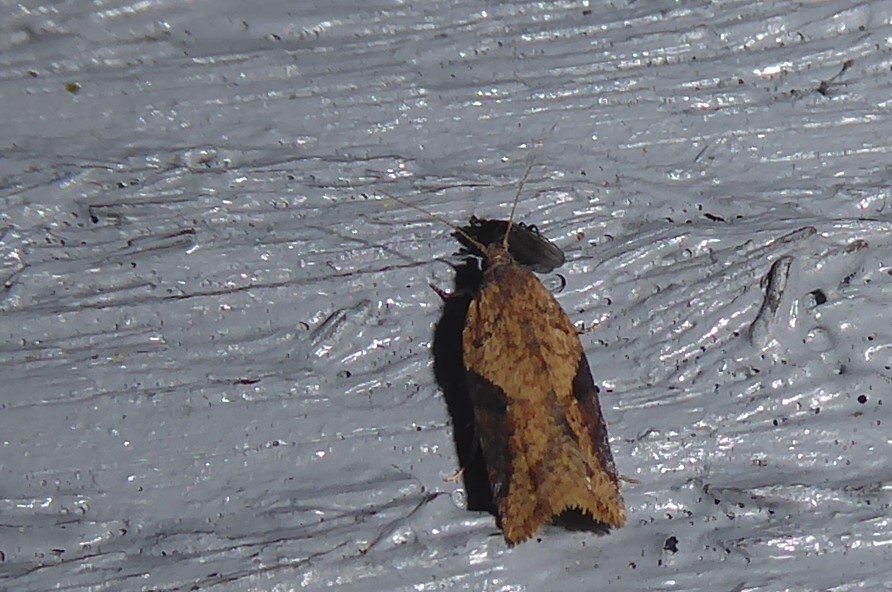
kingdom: Animalia
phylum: Arthropoda
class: Insecta
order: Lepidoptera
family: Tortricidae
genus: Capua
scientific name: Capua semiferana
